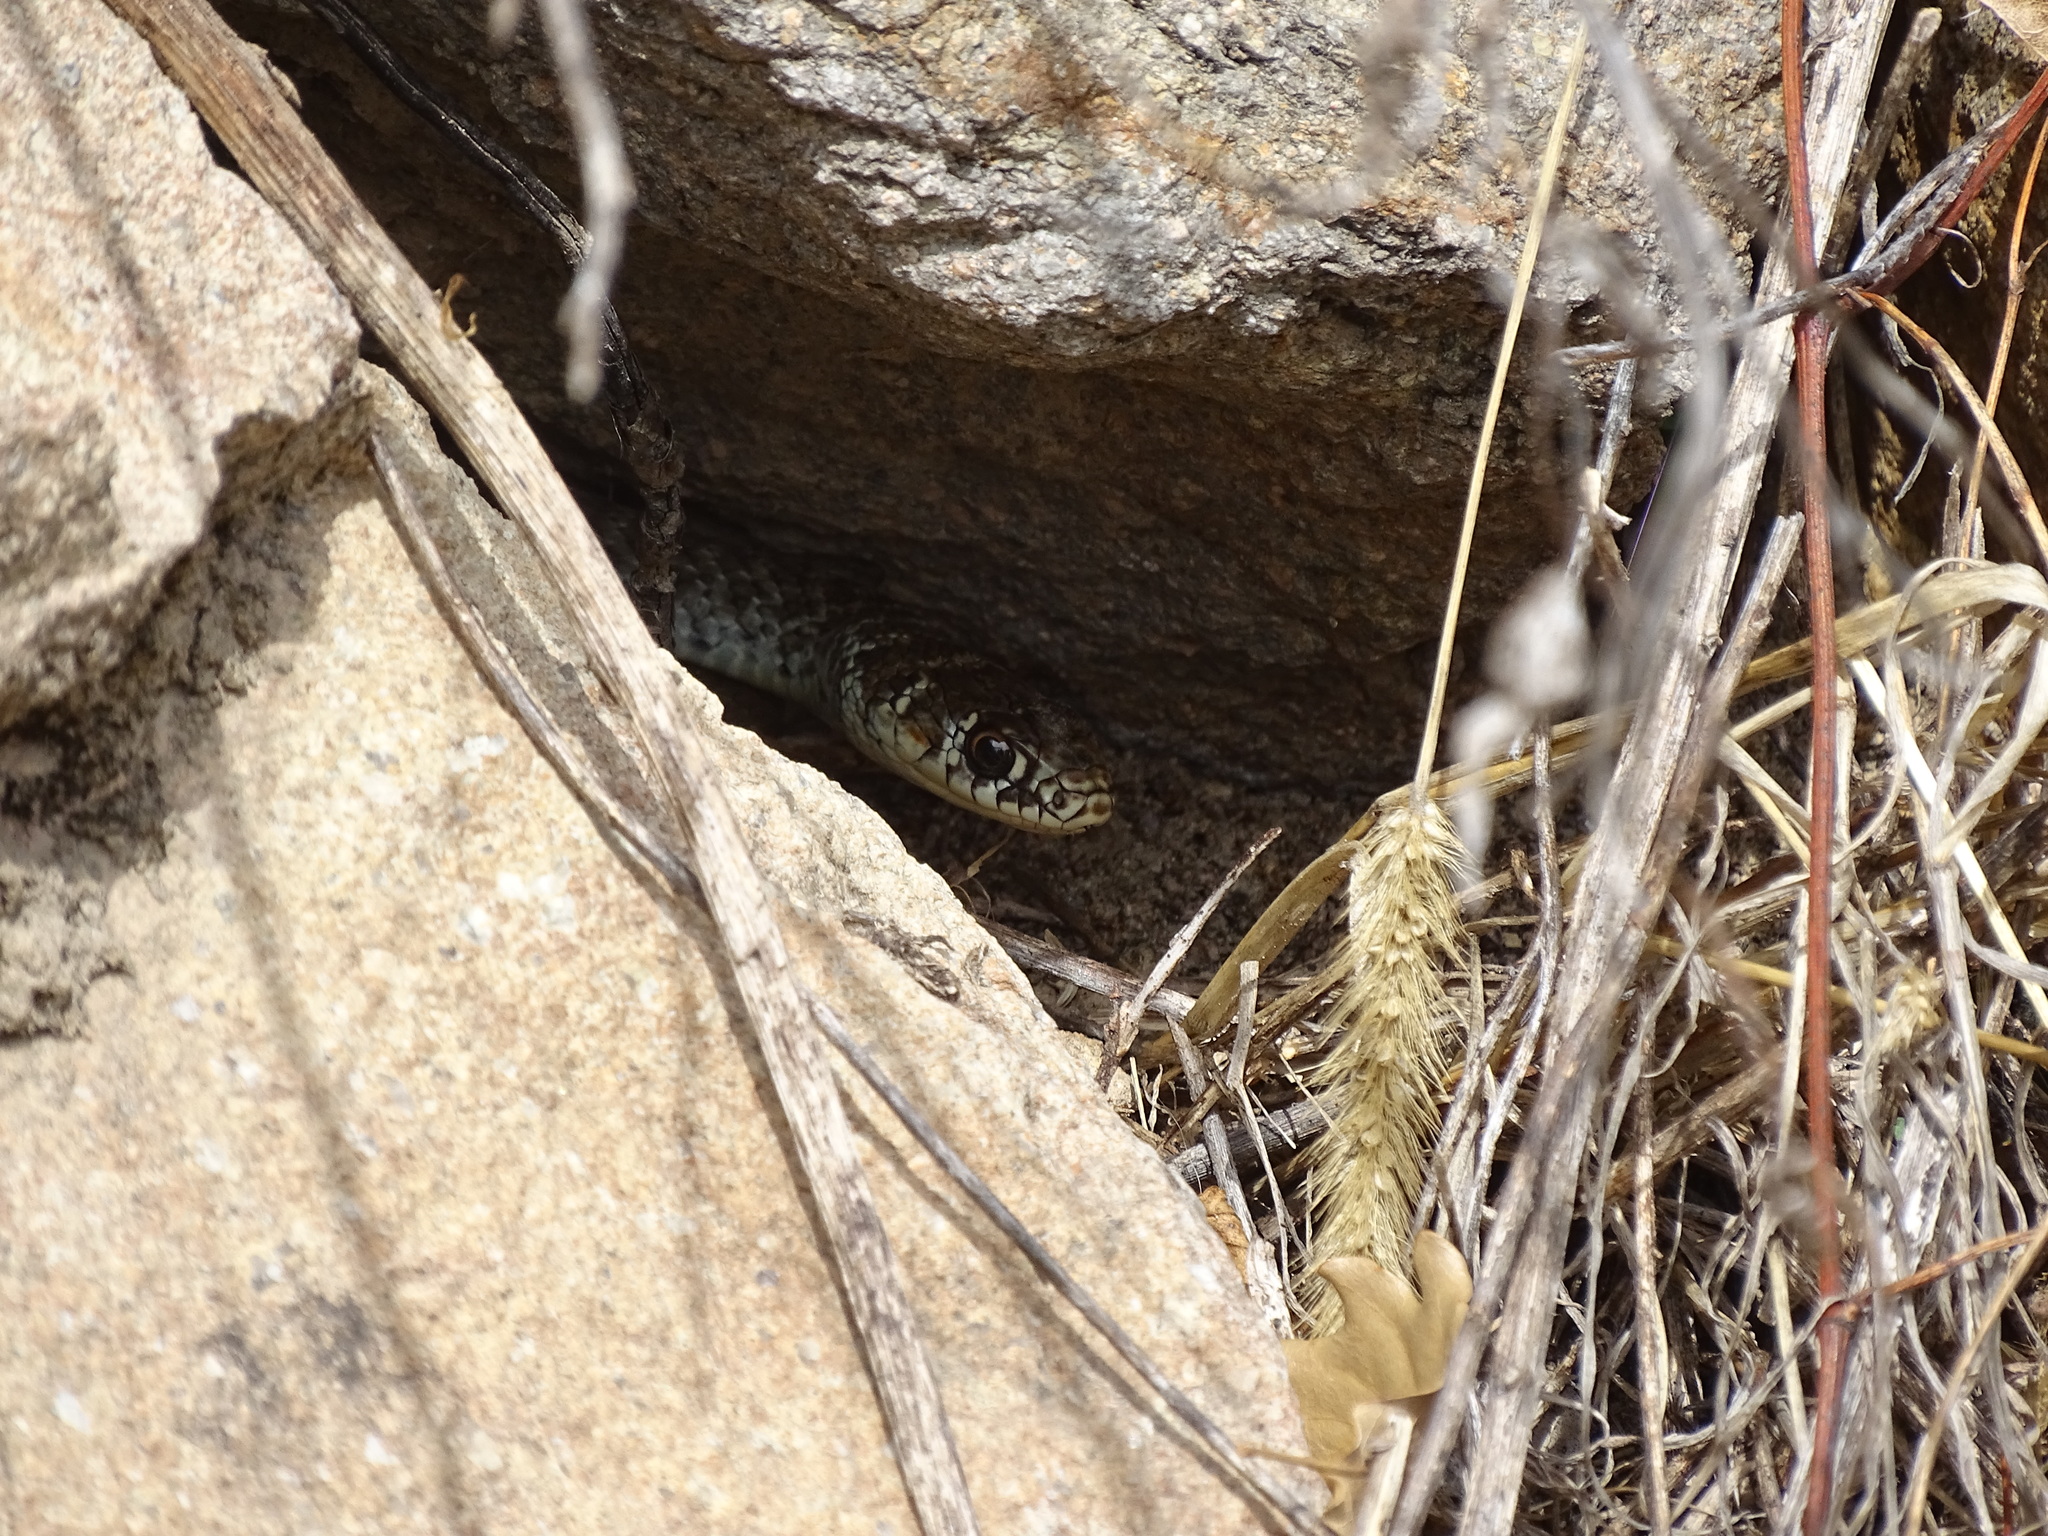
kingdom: Animalia
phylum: Chordata
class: Squamata
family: Colubridae
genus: Hierophis
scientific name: Hierophis viridiflavus
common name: Green whip snake
